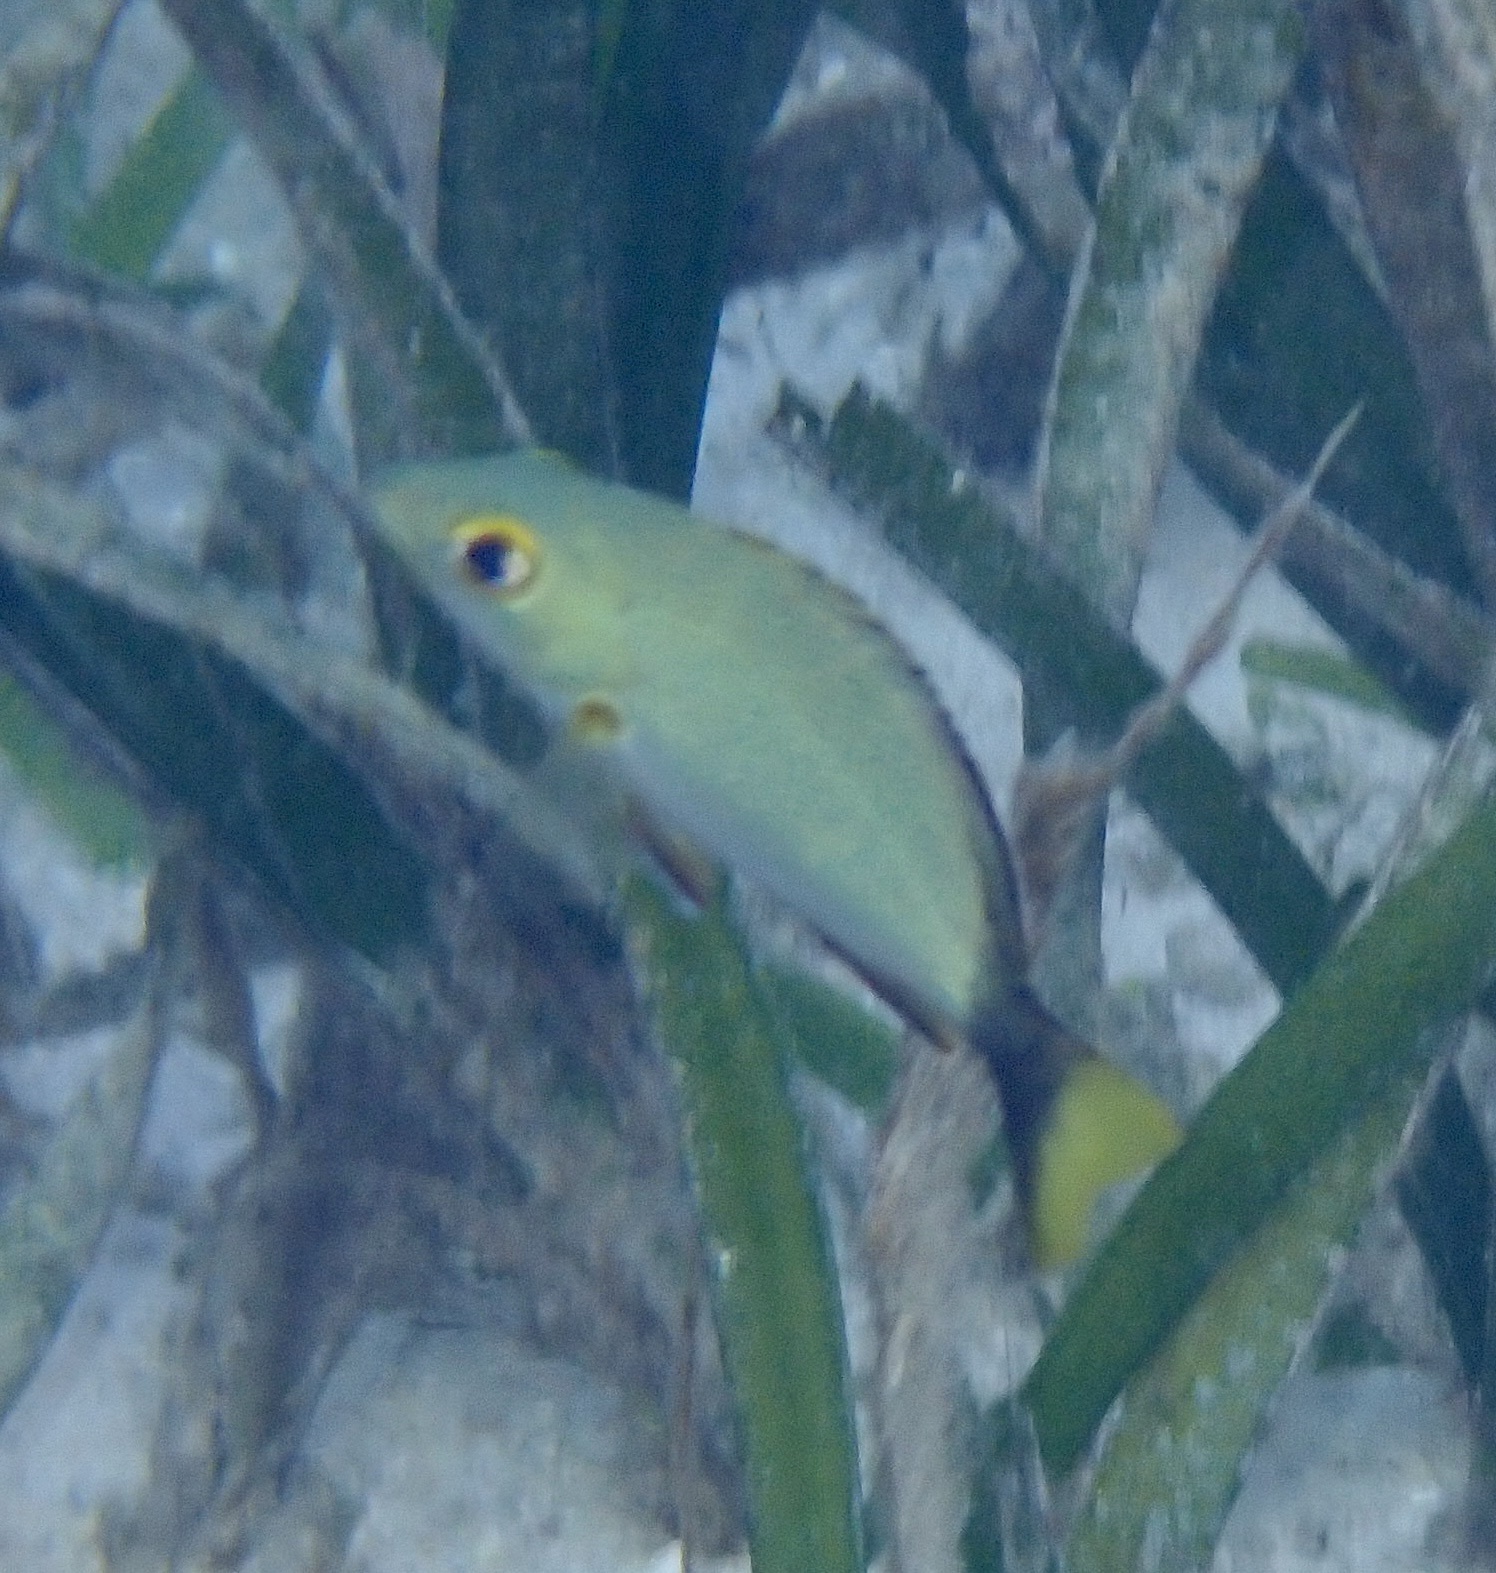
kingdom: Animalia
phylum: Chordata
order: Perciformes
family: Lutjanidae
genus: Lutjanus
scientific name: Lutjanus gibbus
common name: Humpback snapper
